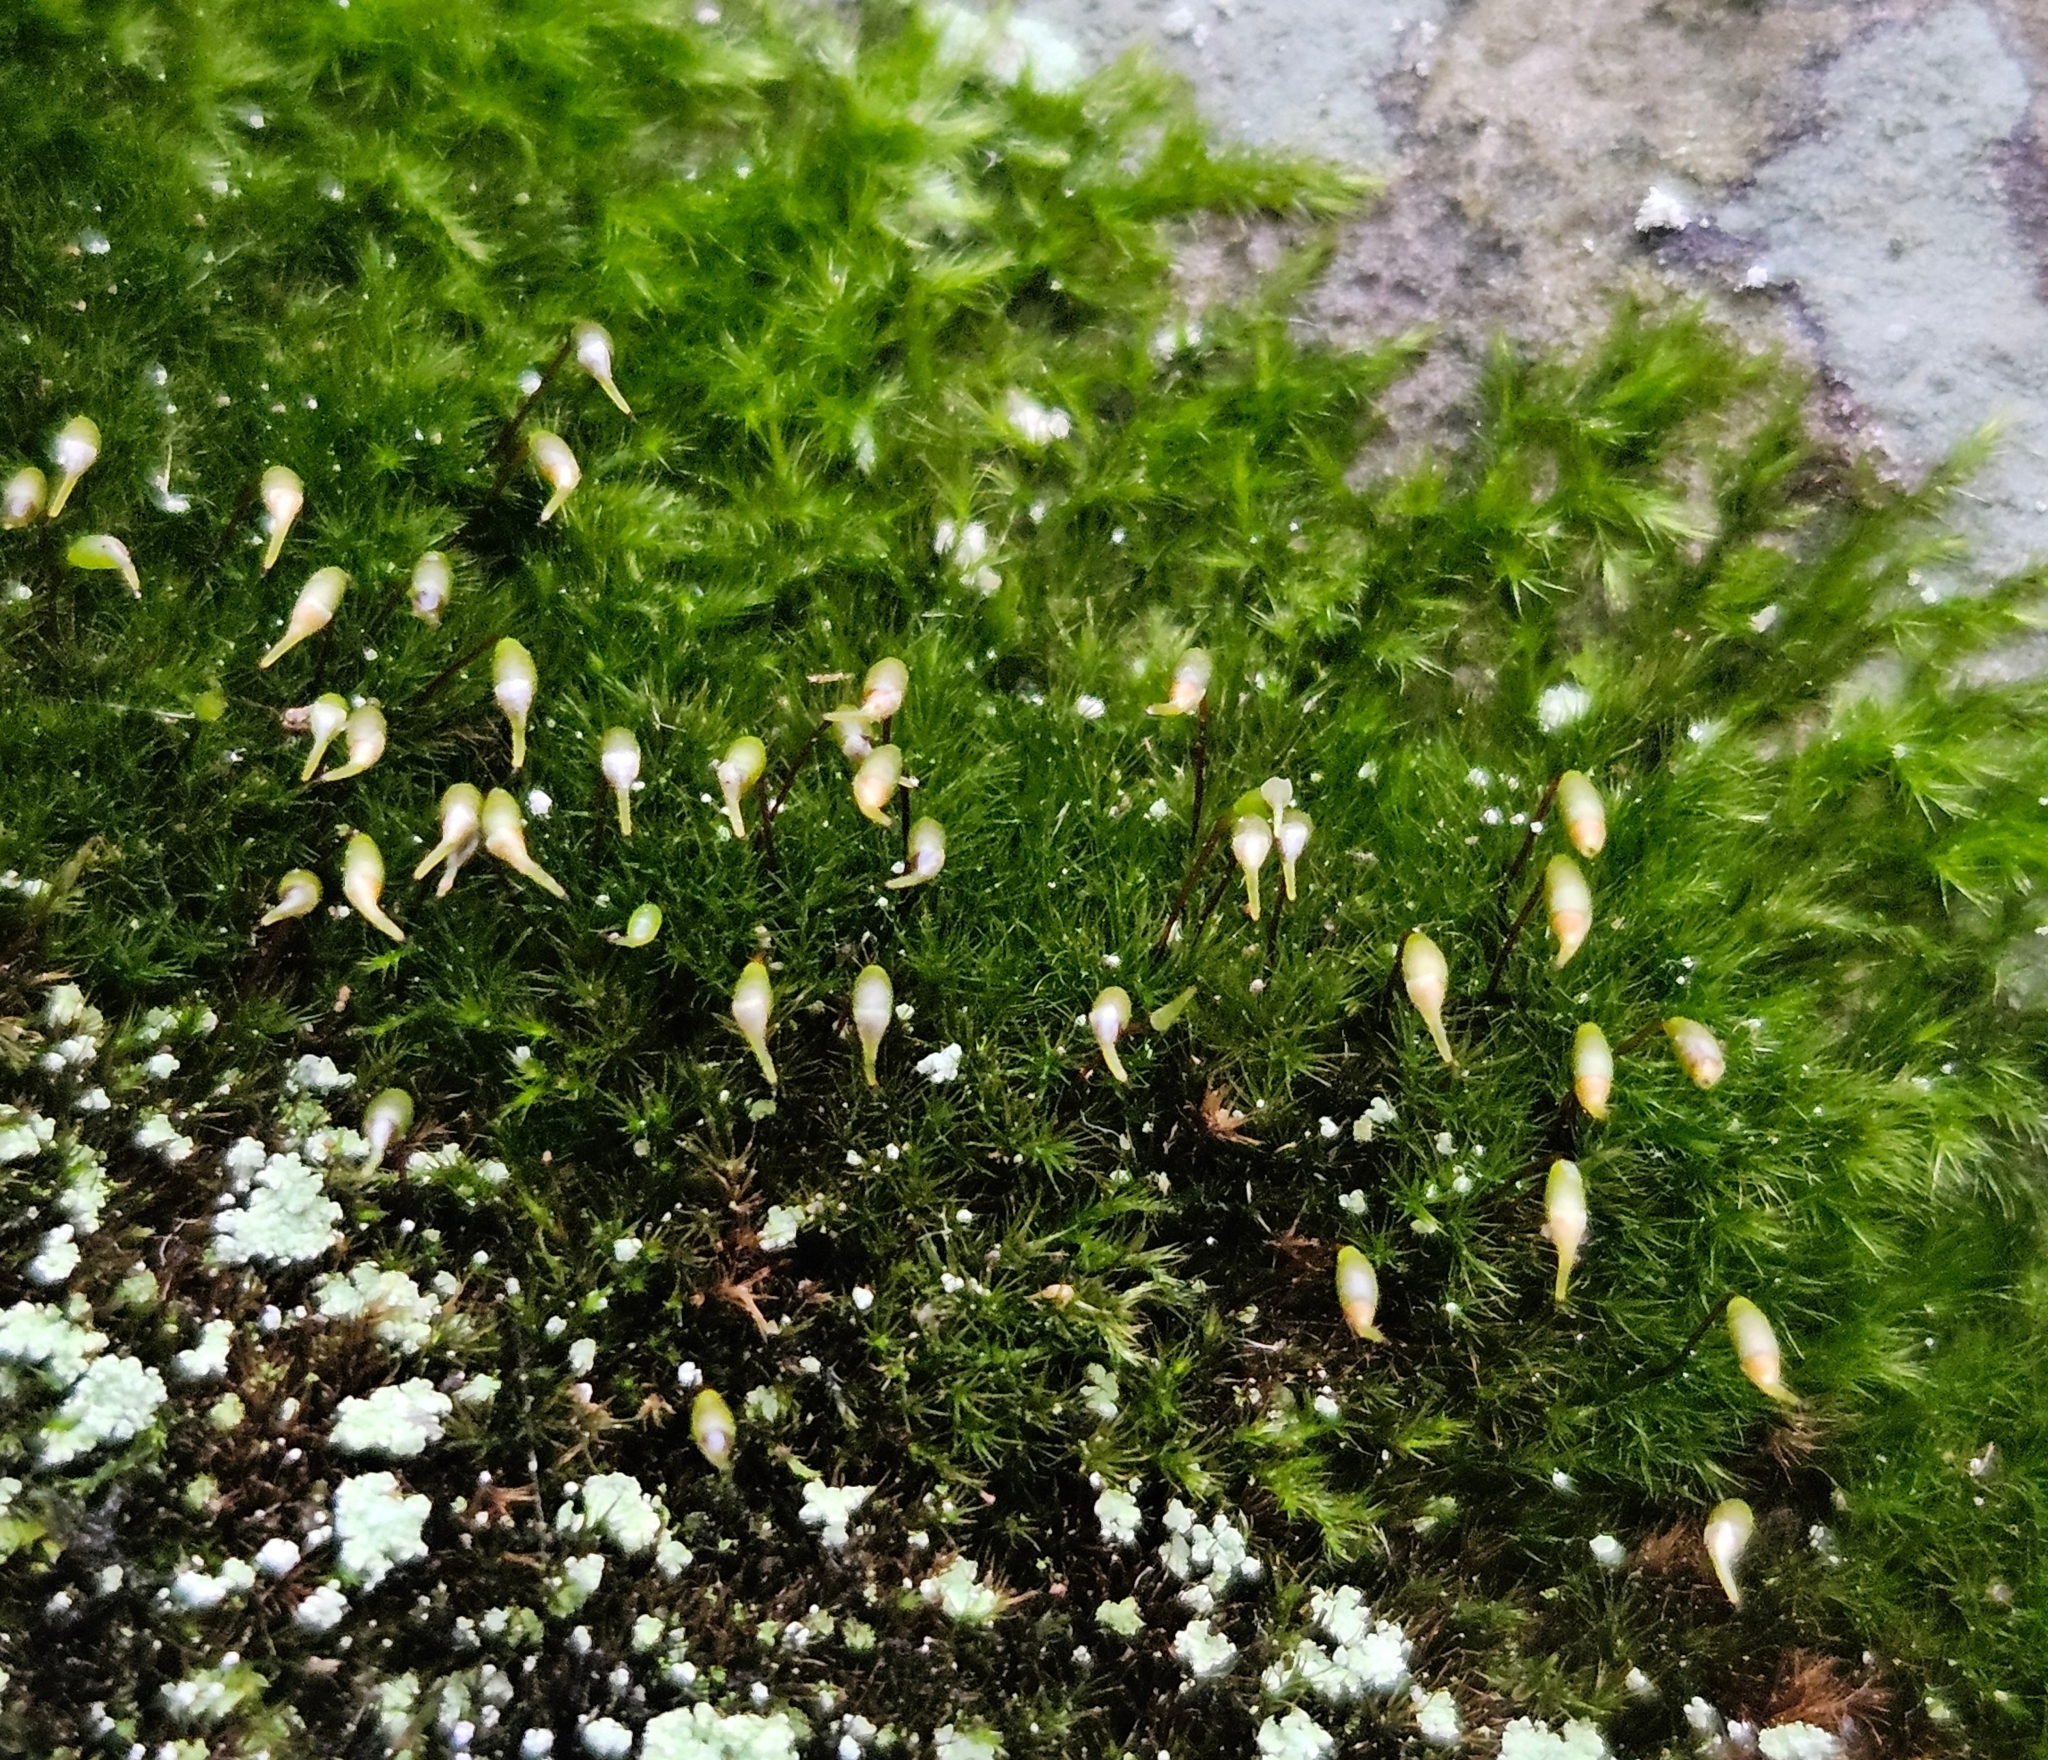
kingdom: Plantae
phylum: Bryophyta
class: Bryopsida
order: Hypnales
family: Brachytheciaceae
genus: Rhynchostegiella
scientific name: Rhynchostegiella tenella
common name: Tender feather-moss
